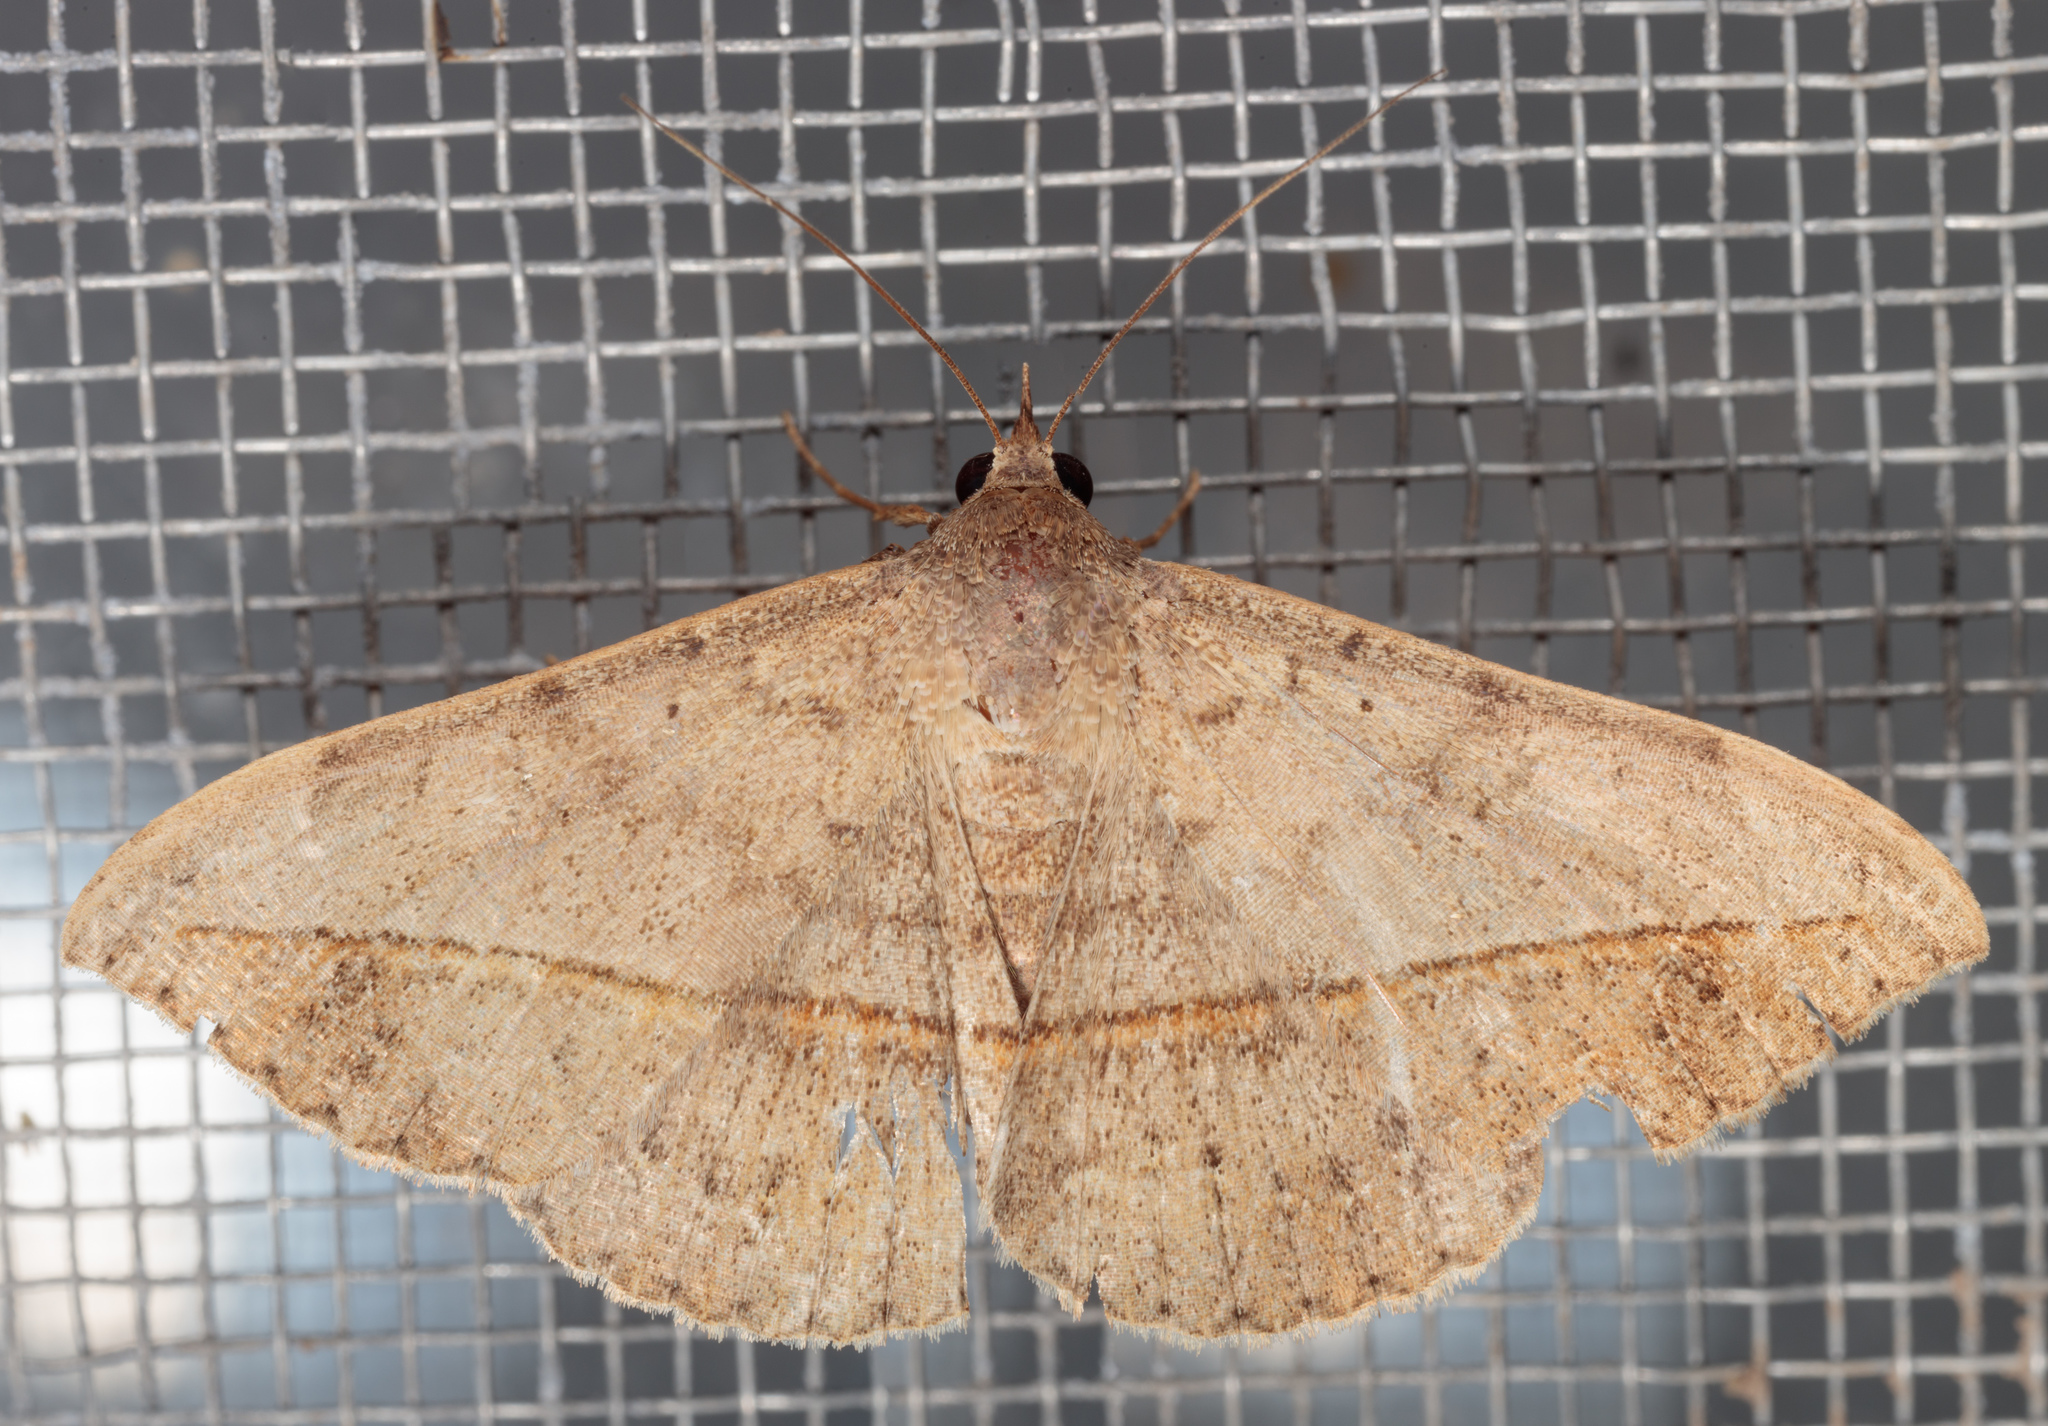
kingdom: Animalia
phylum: Arthropoda
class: Insecta
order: Lepidoptera
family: Erebidae
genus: Anticarsia
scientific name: Anticarsia gemmatalis
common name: Cutworm moth
